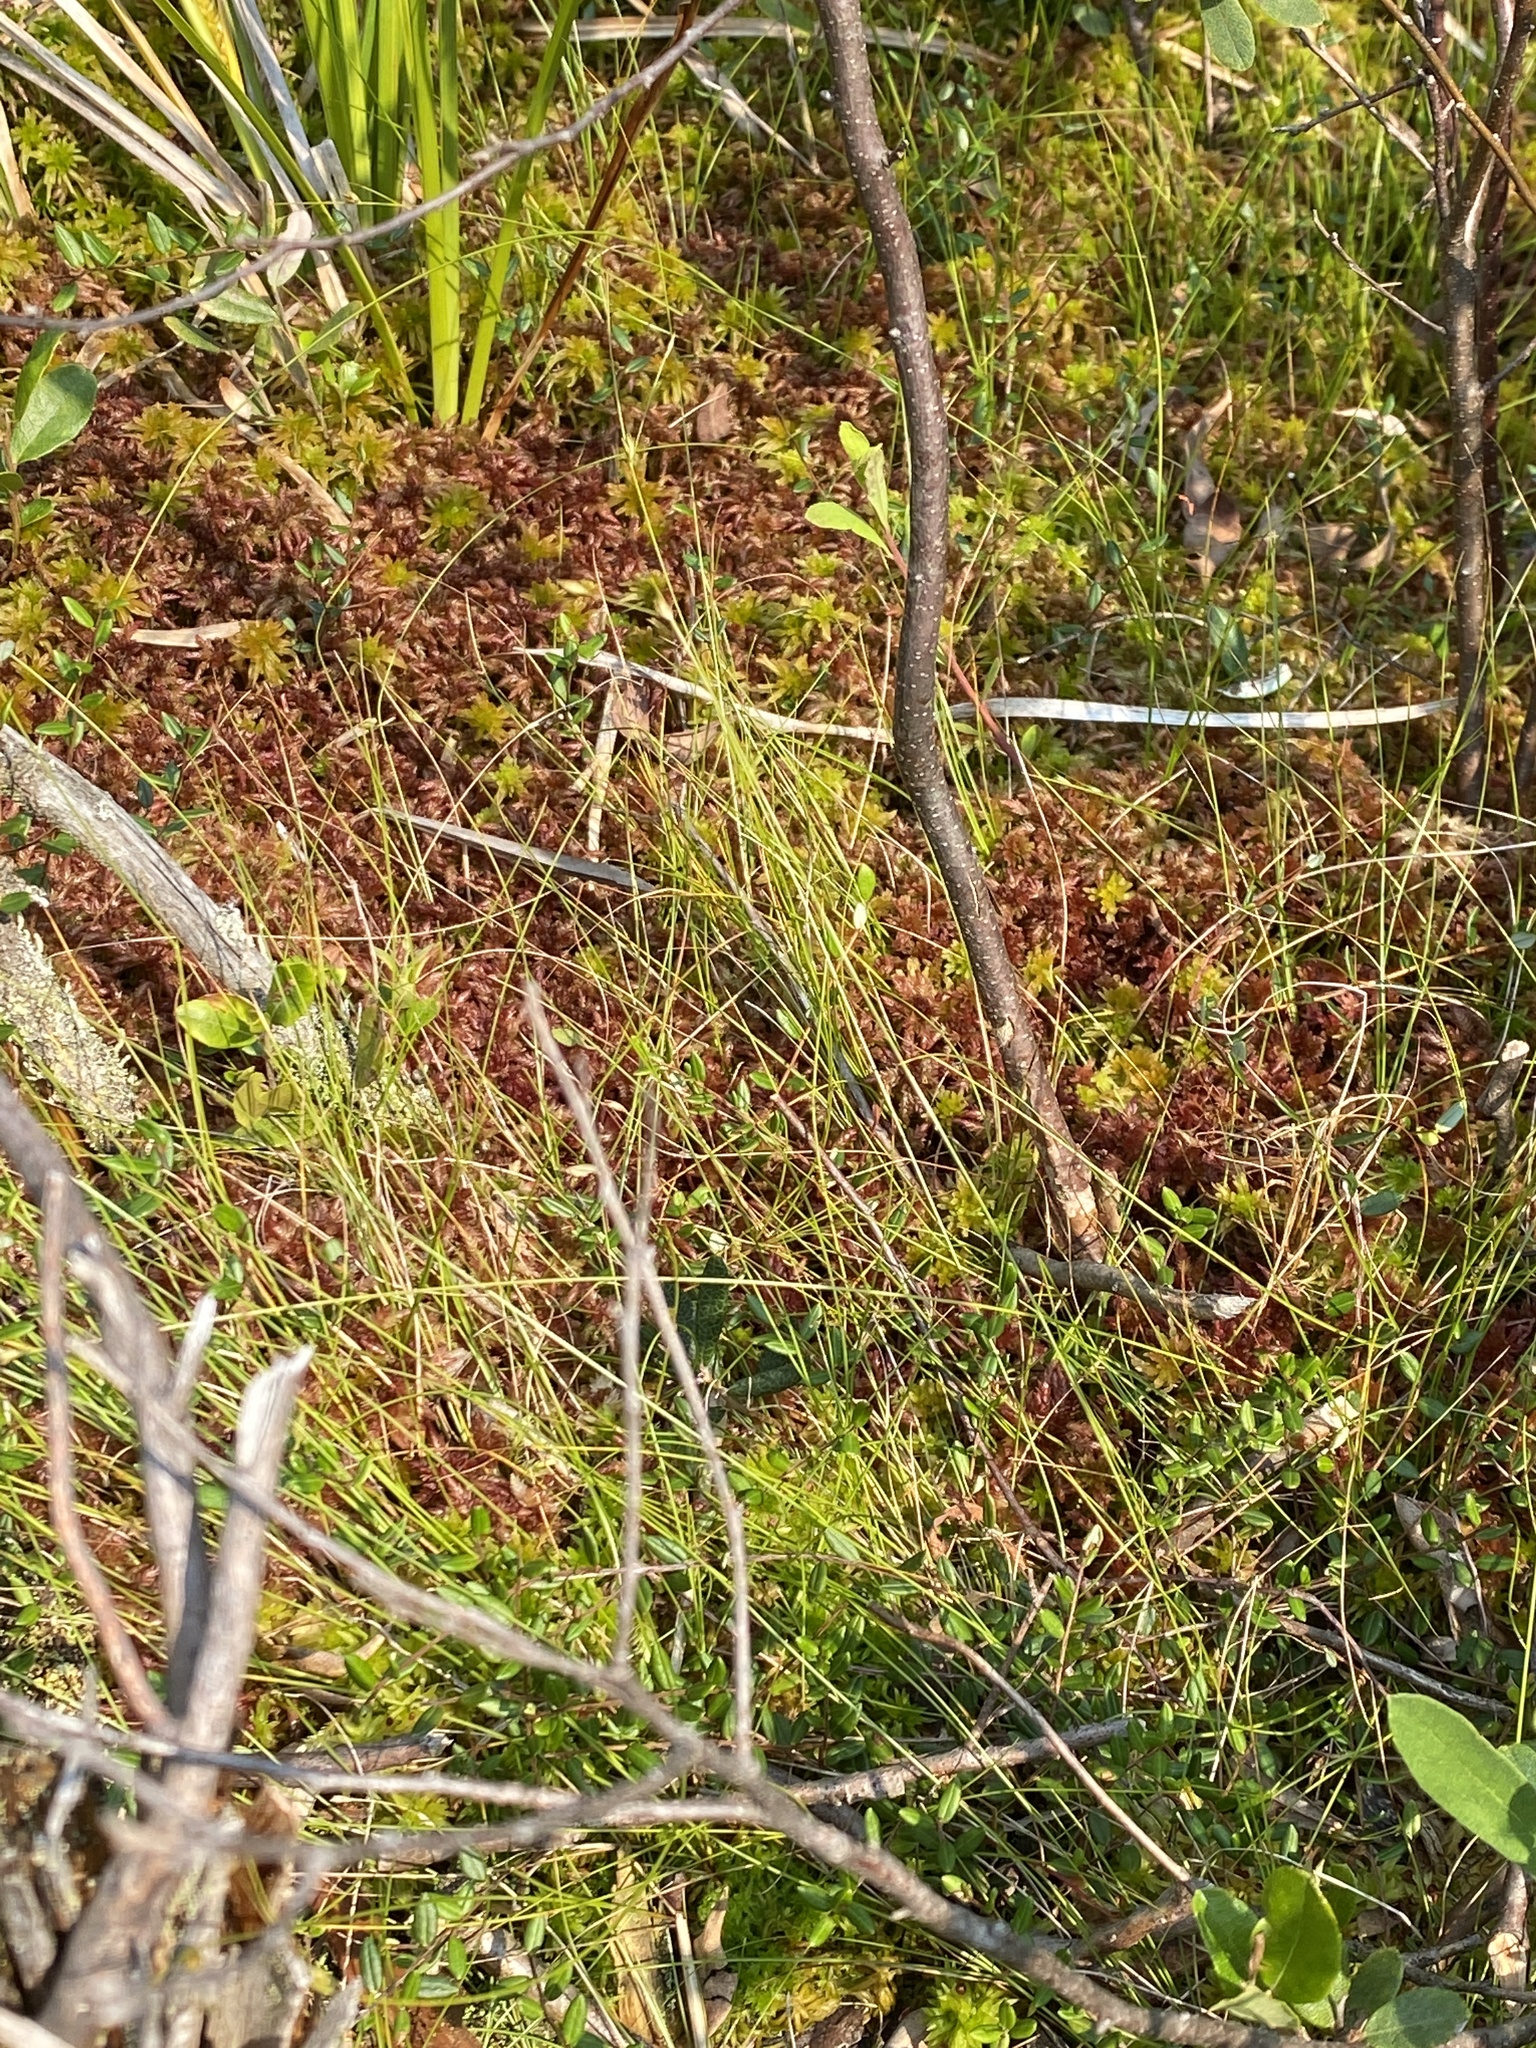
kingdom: Plantae
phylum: Tracheophyta
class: Liliopsida
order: Poales
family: Cyperaceae
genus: Carex
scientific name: Carex trisperma
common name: Three-seeded sedge
